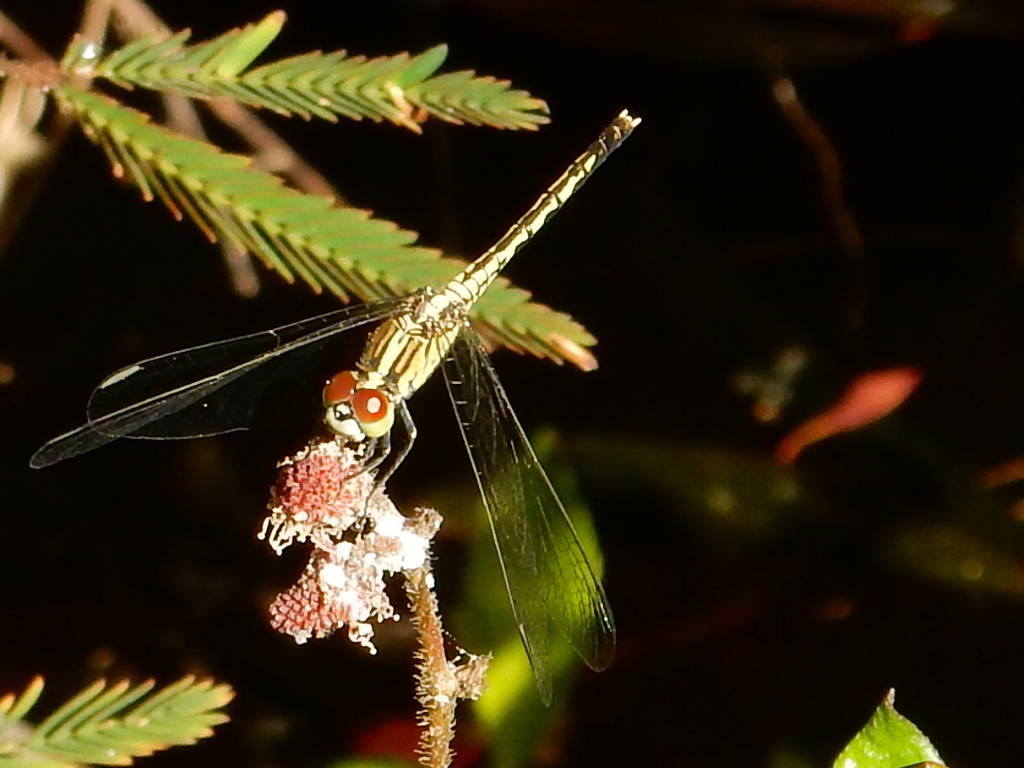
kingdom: Animalia
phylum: Arthropoda
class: Insecta
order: Odonata
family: Libellulidae
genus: Diplacodes
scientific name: Diplacodes trivialis
